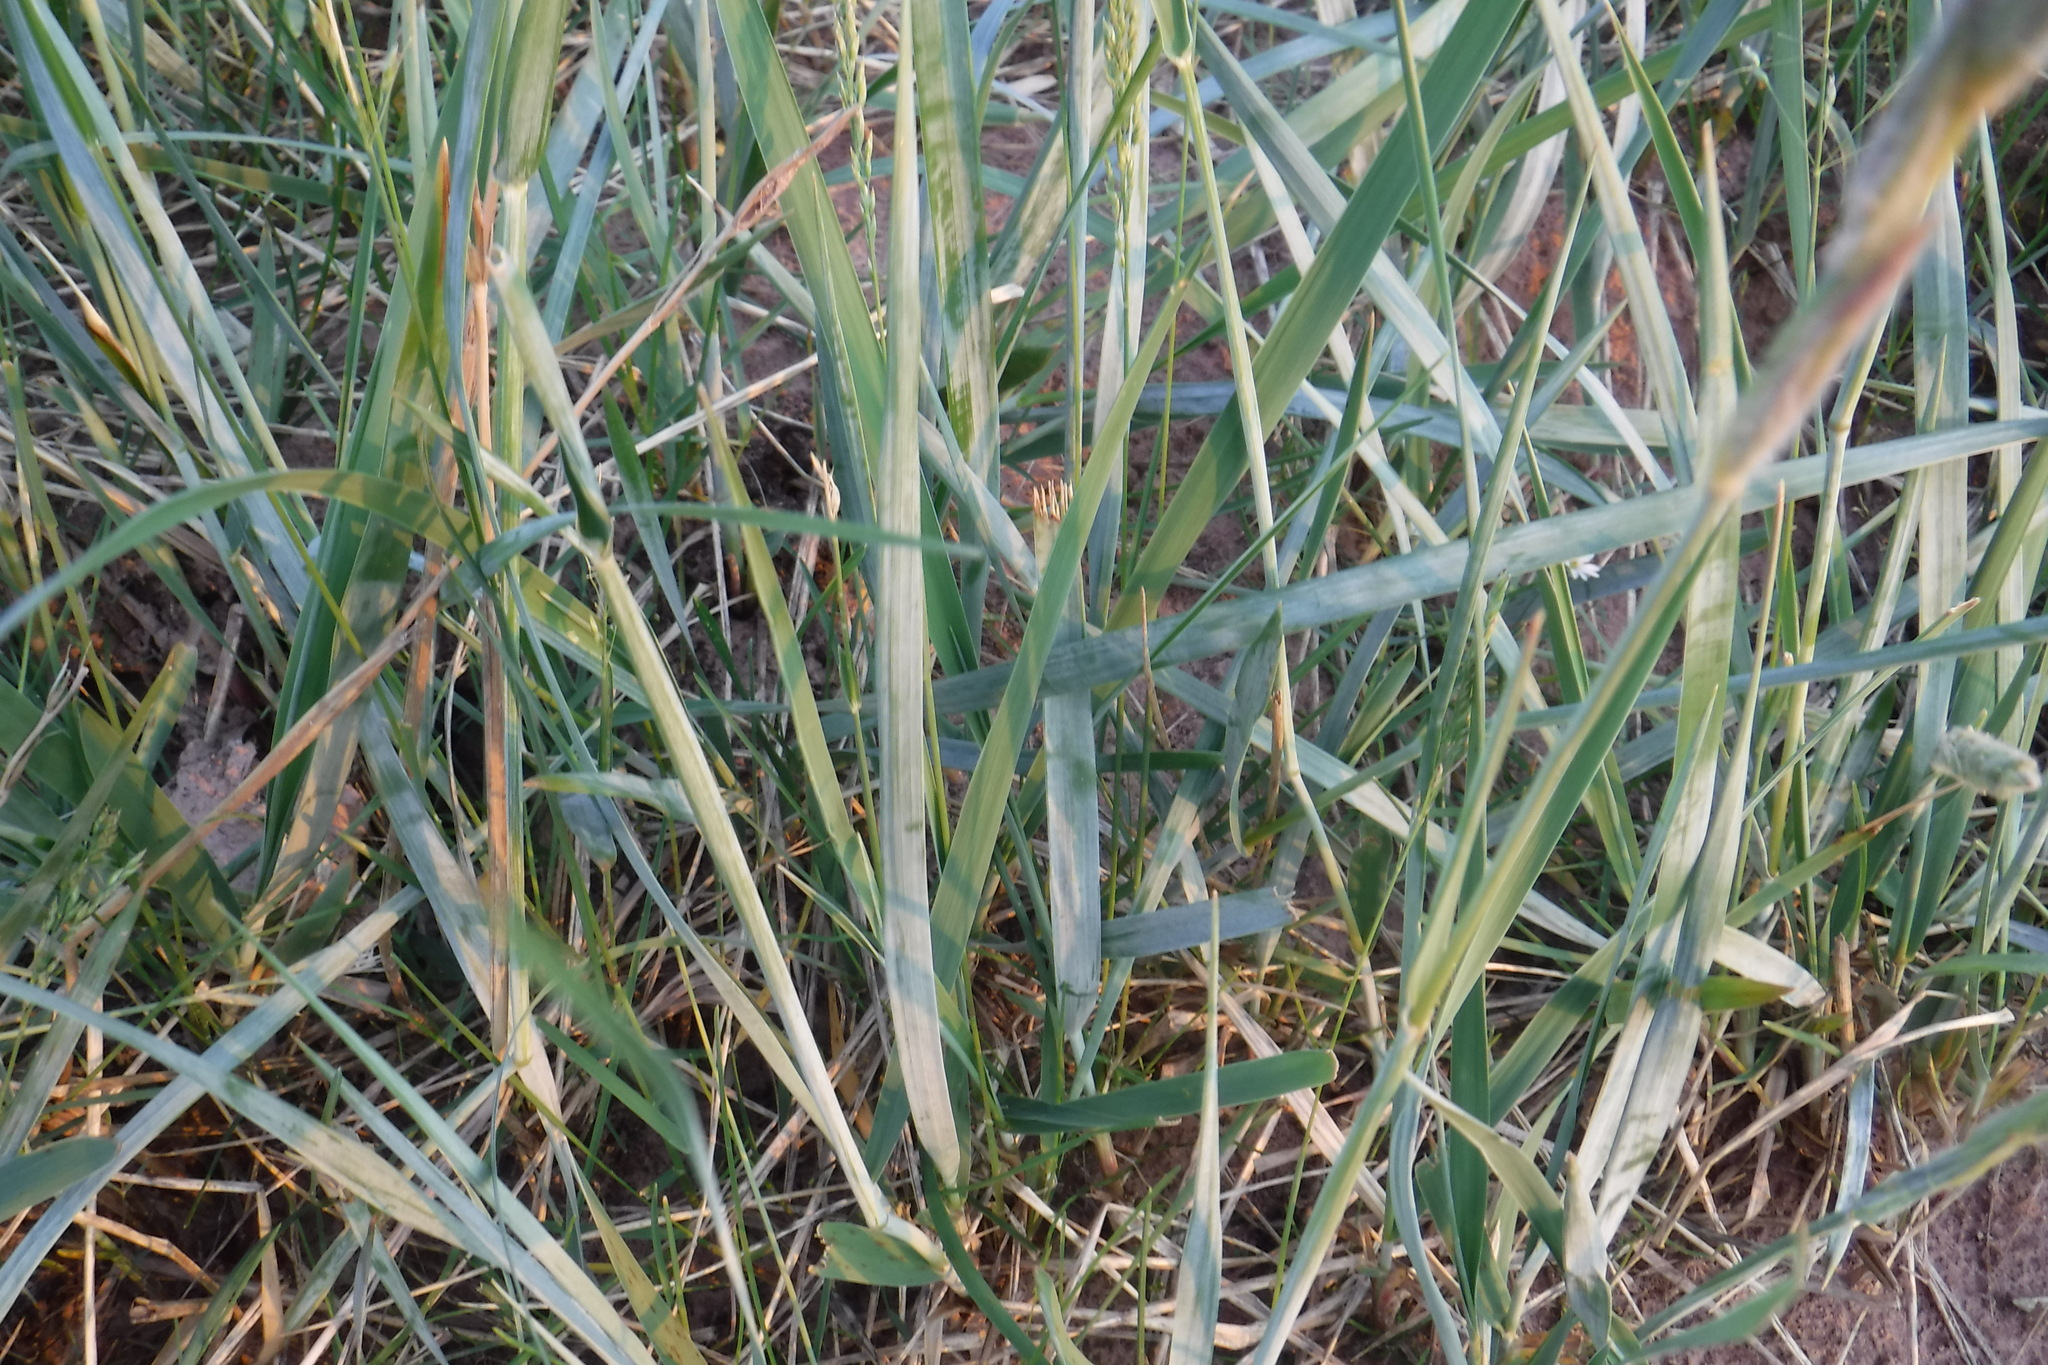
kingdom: Plantae
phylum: Tracheophyta
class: Liliopsida
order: Poales
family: Poaceae
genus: Leymus
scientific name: Leymus villosissimus
